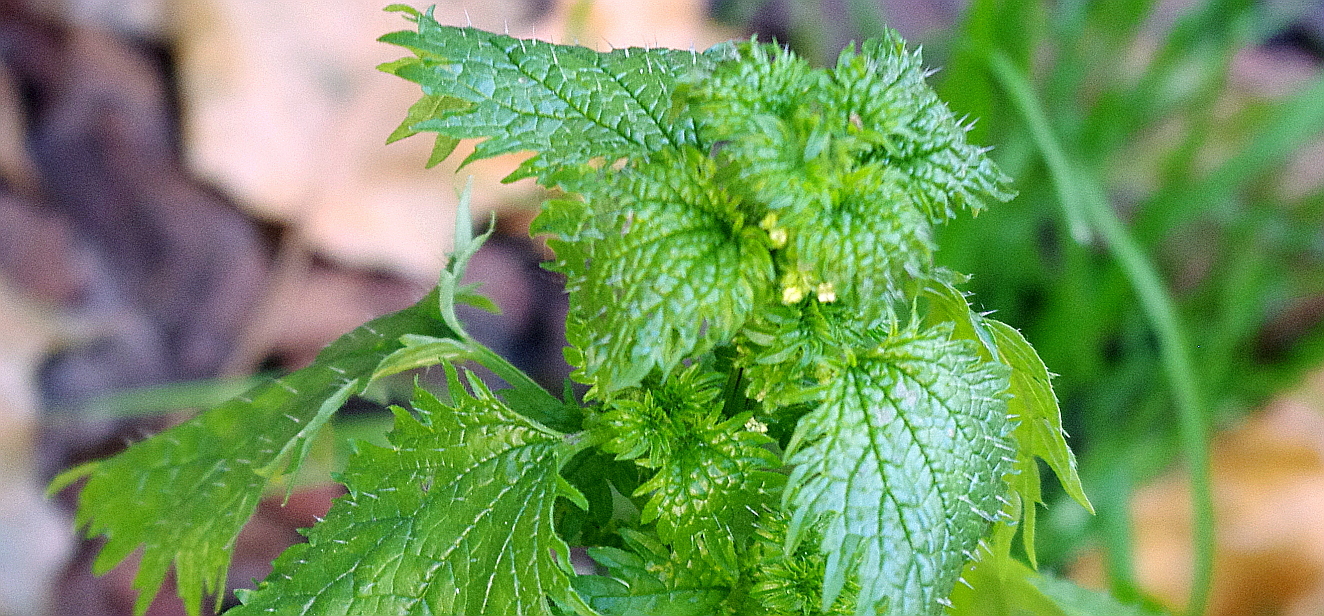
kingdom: Plantae
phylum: Tracheophyta
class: Magnoliopsida
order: Rosales
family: Urticaceae
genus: Urtica
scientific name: Urtica urens
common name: Dwarf nettle
